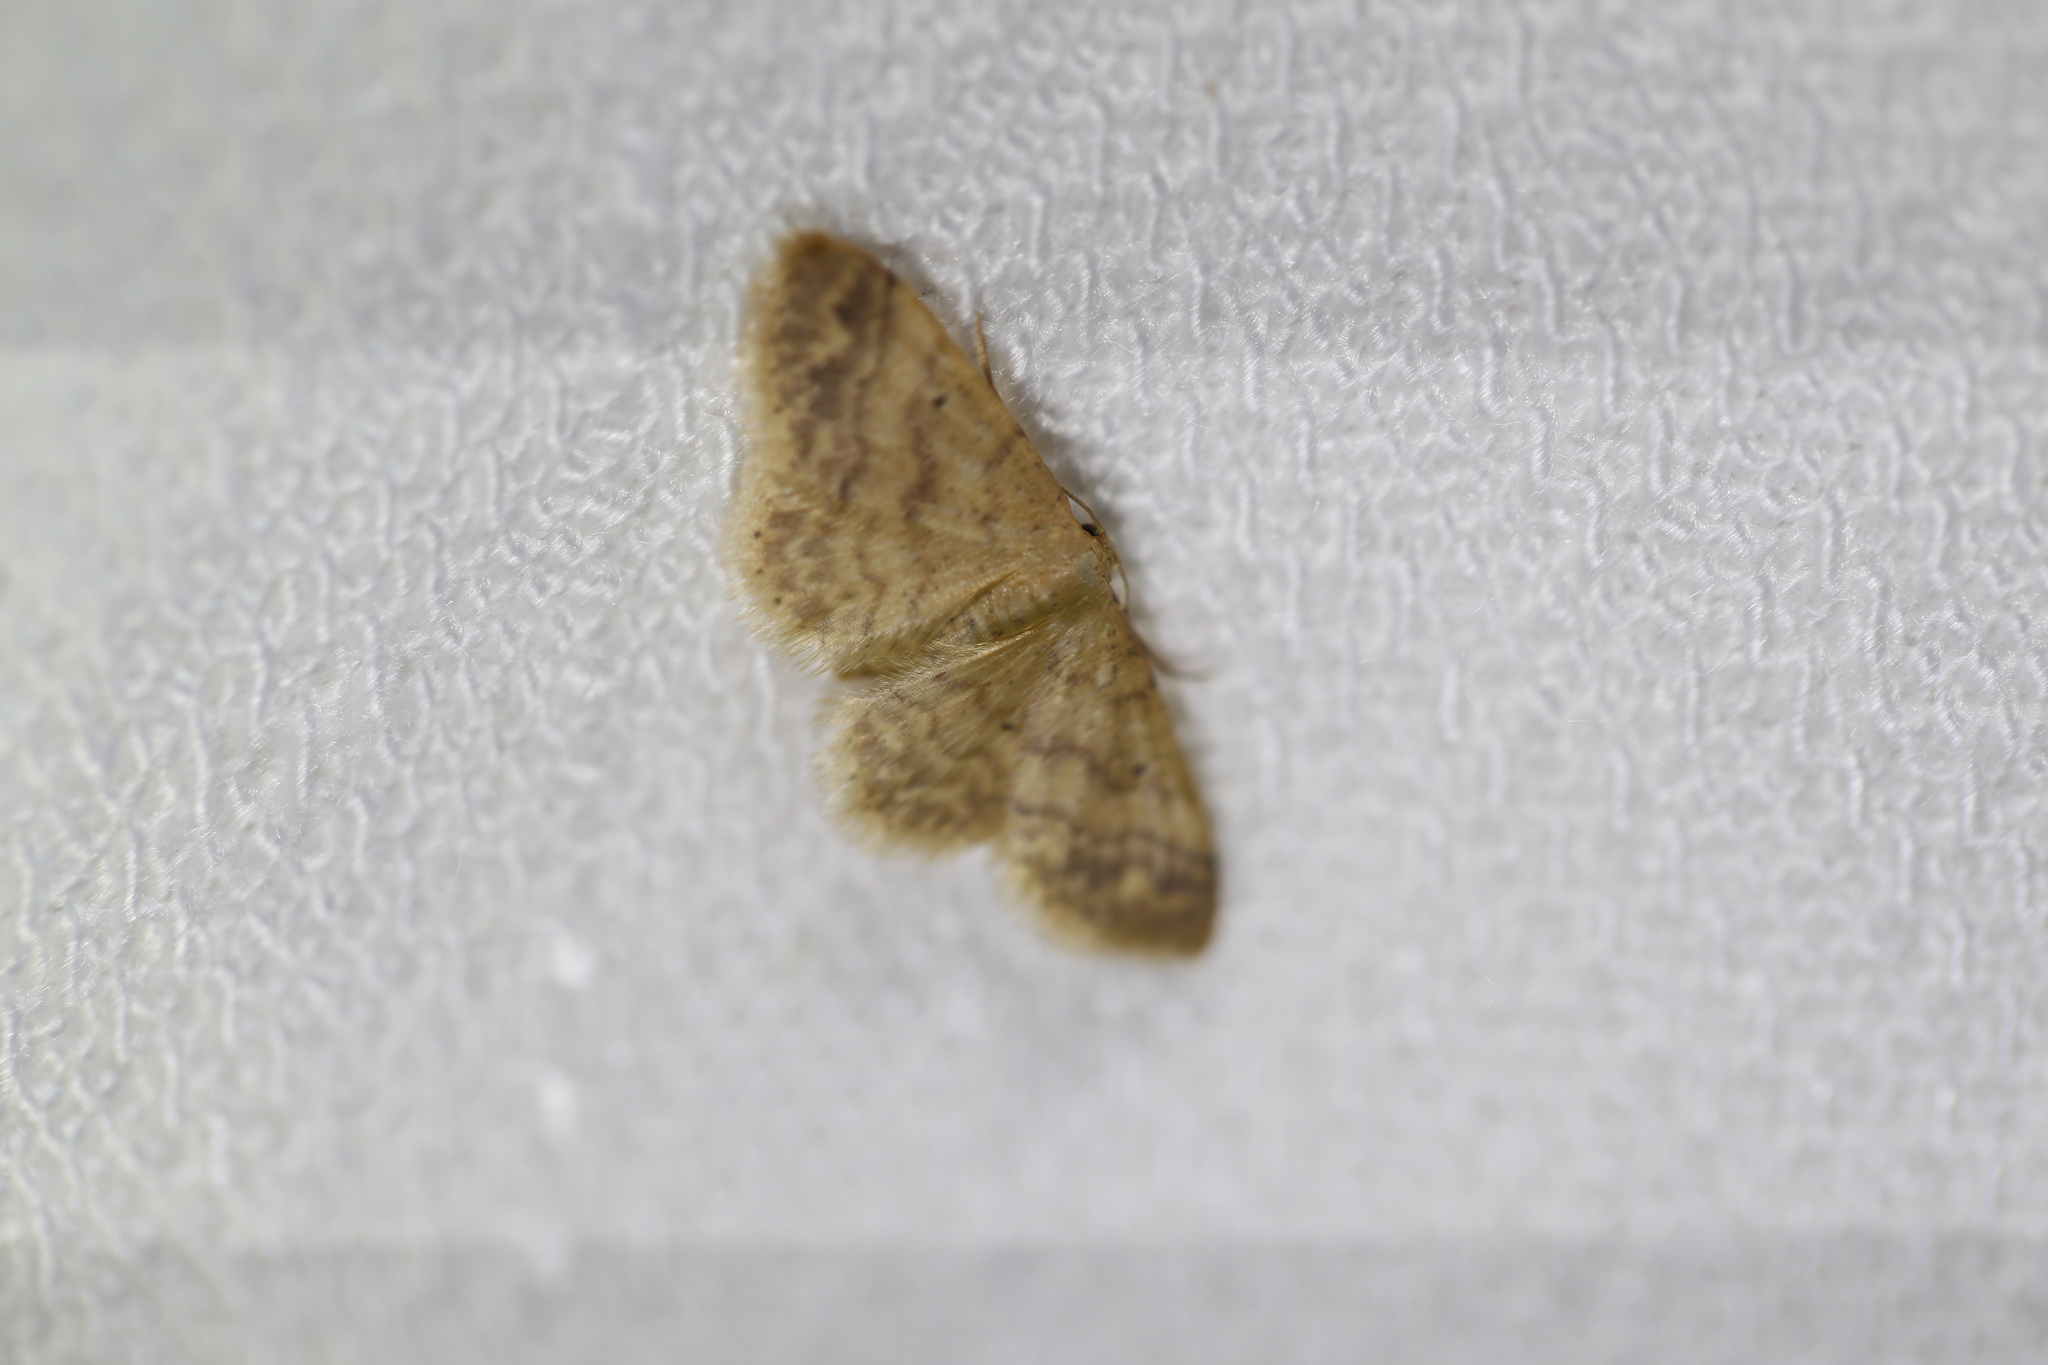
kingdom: Animalia
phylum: Arthropoda
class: Insecta
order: Lepidoptera
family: Geometridae
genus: Idaea
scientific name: Idaea pilosata
